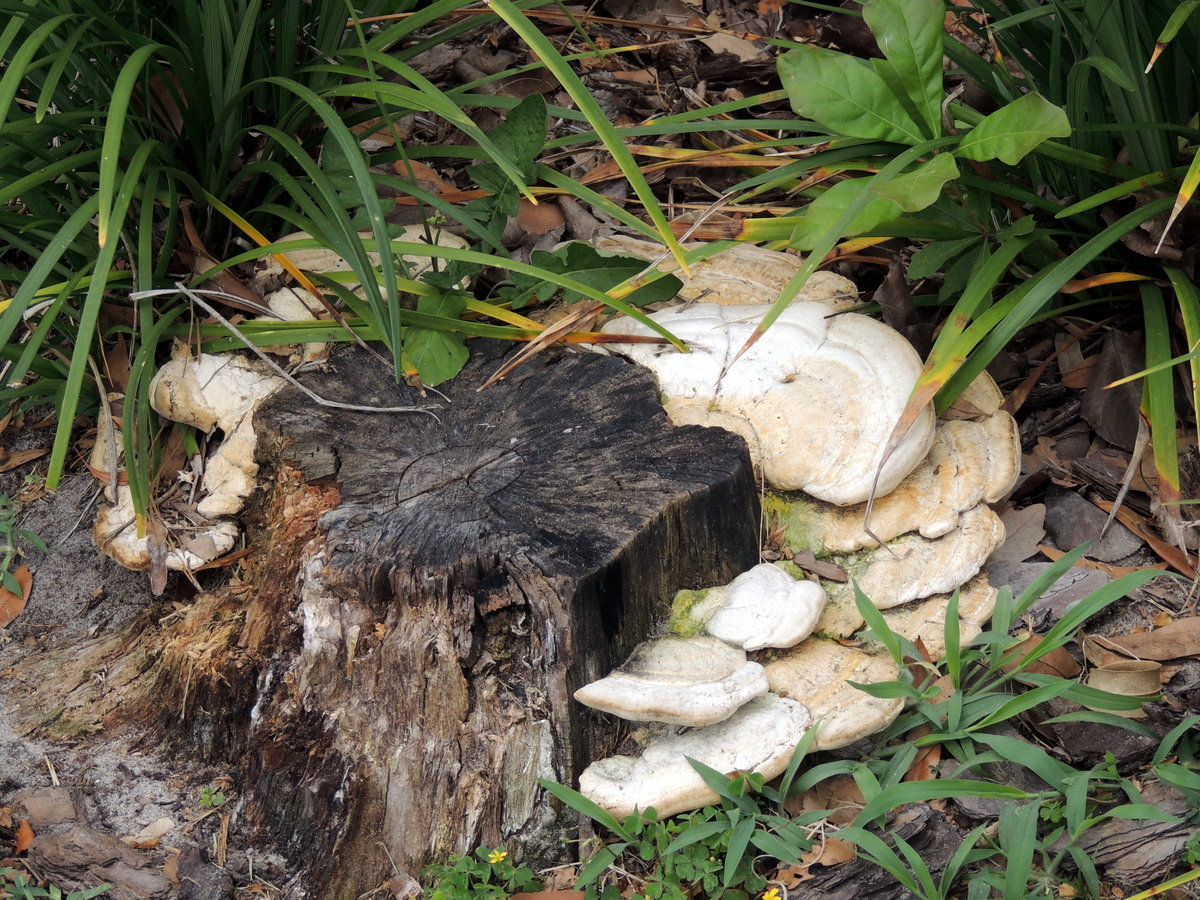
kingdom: Fungi
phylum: Basidiomycota
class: Agaricomycetes
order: Polyporales
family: Polyporaceae
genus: Trametes
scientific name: Trametes lactinea
